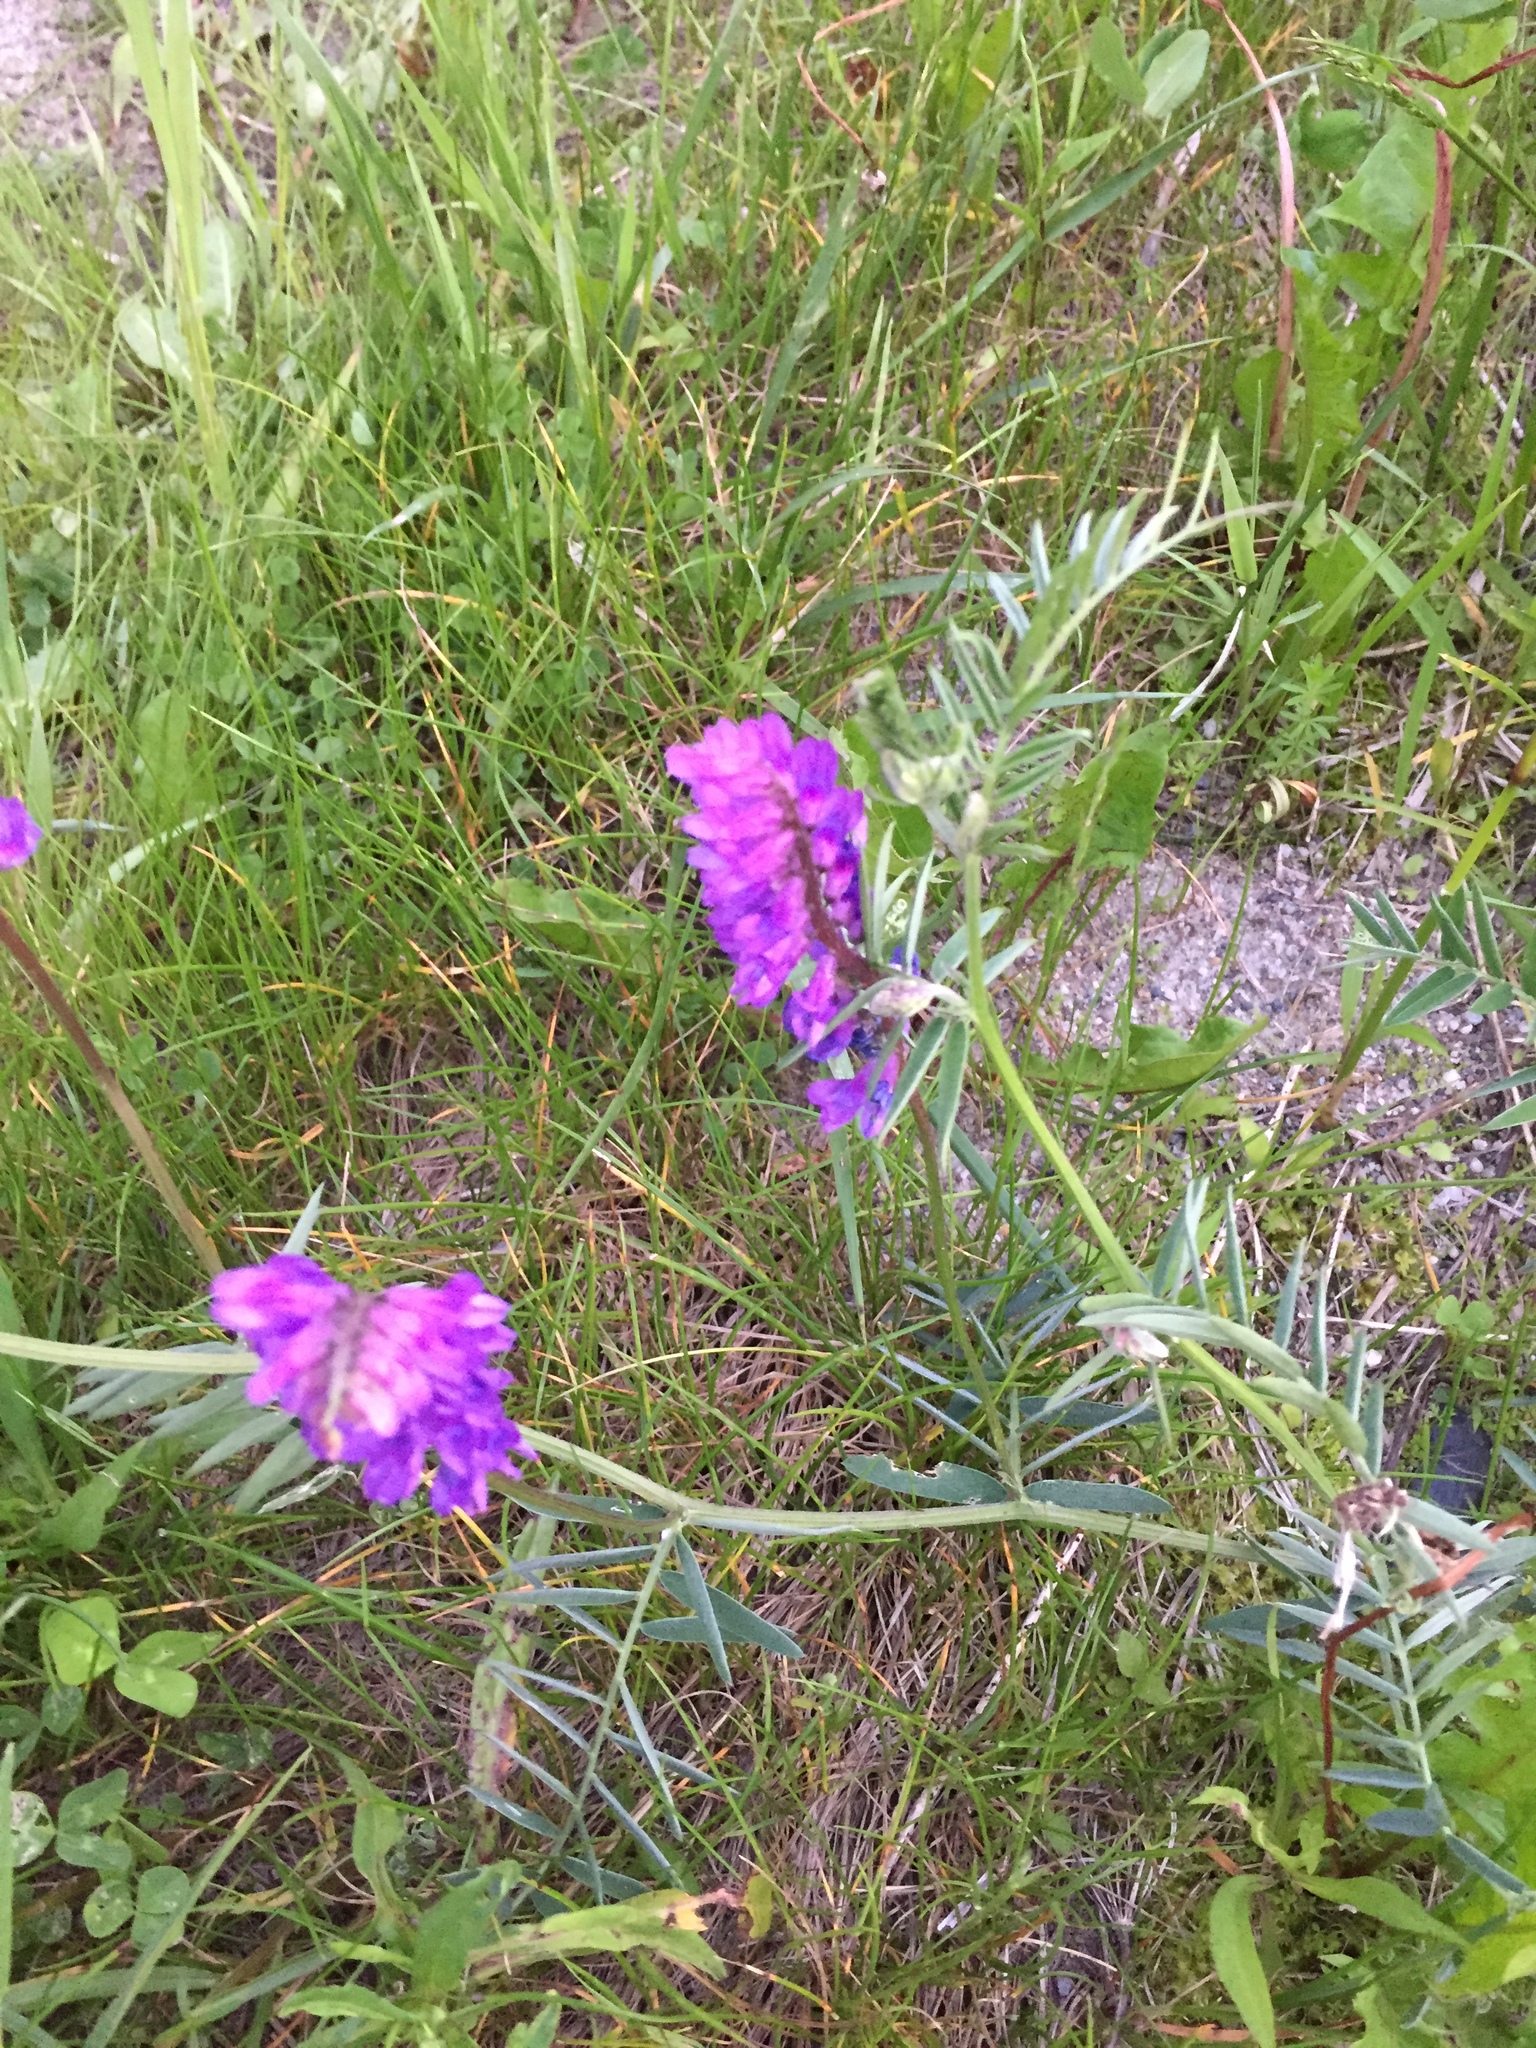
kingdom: Plantae
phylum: Tracheophyta
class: Magnoliopsida
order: Fabales
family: Fabaceae
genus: Vicia
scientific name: Vicia cracca
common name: Bird vetch
